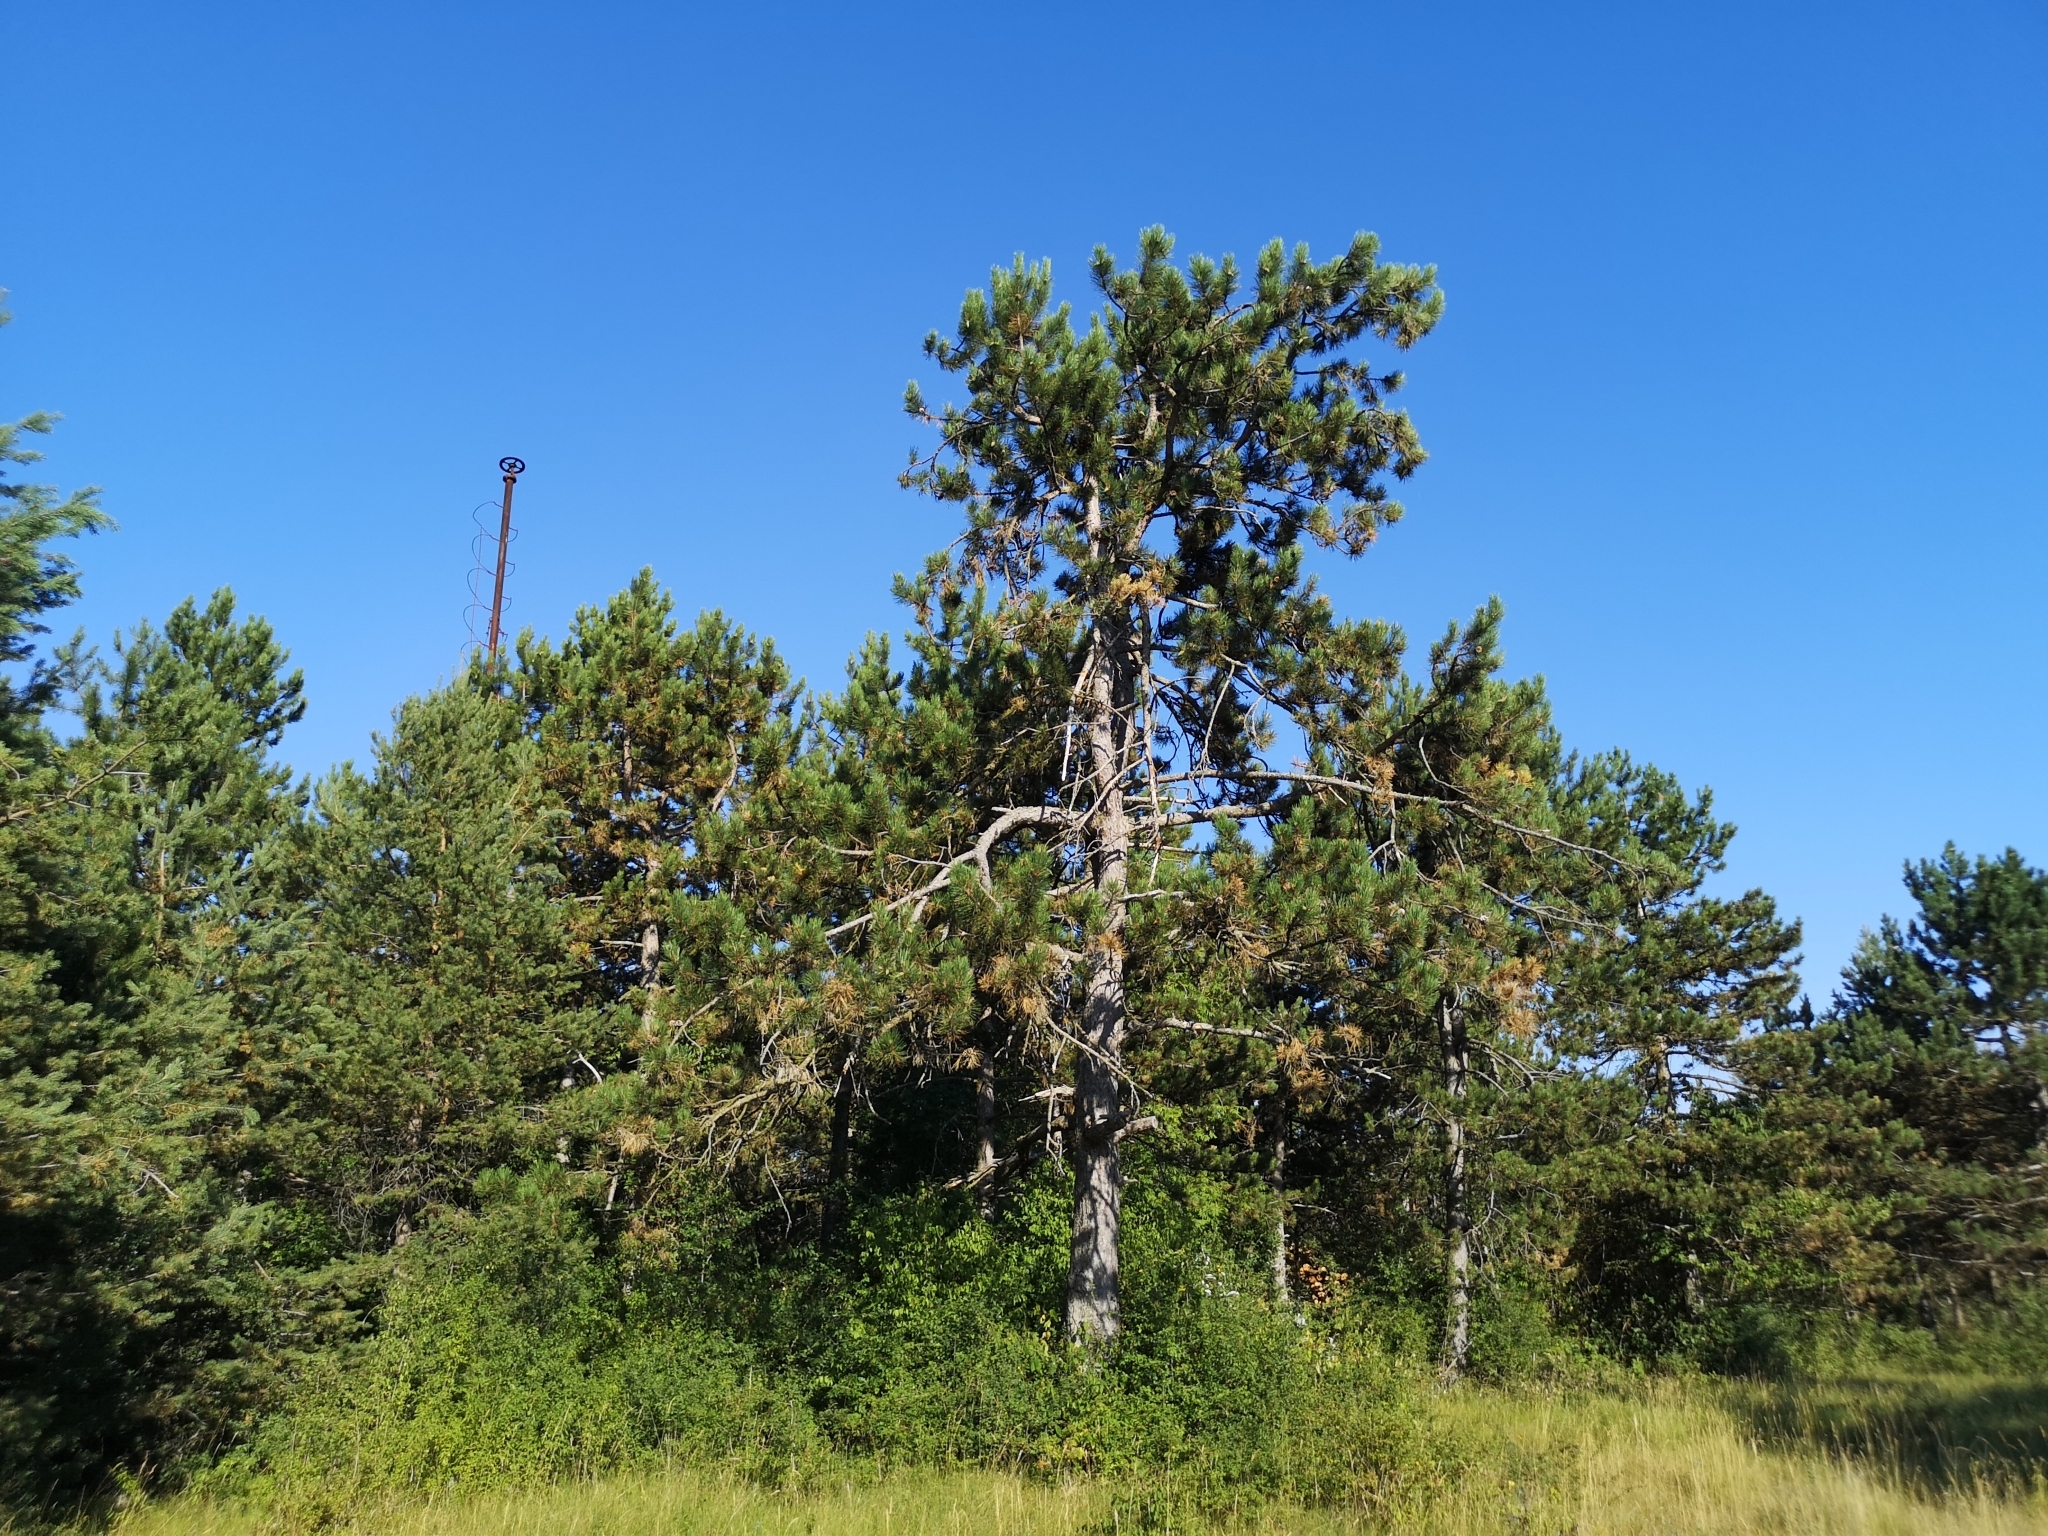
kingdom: Plantae
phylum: Tracheophyta
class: Pinopsida
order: Pinales
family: Pinaceae
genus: Pinus
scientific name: Pinus nigra
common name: Austrian pine
